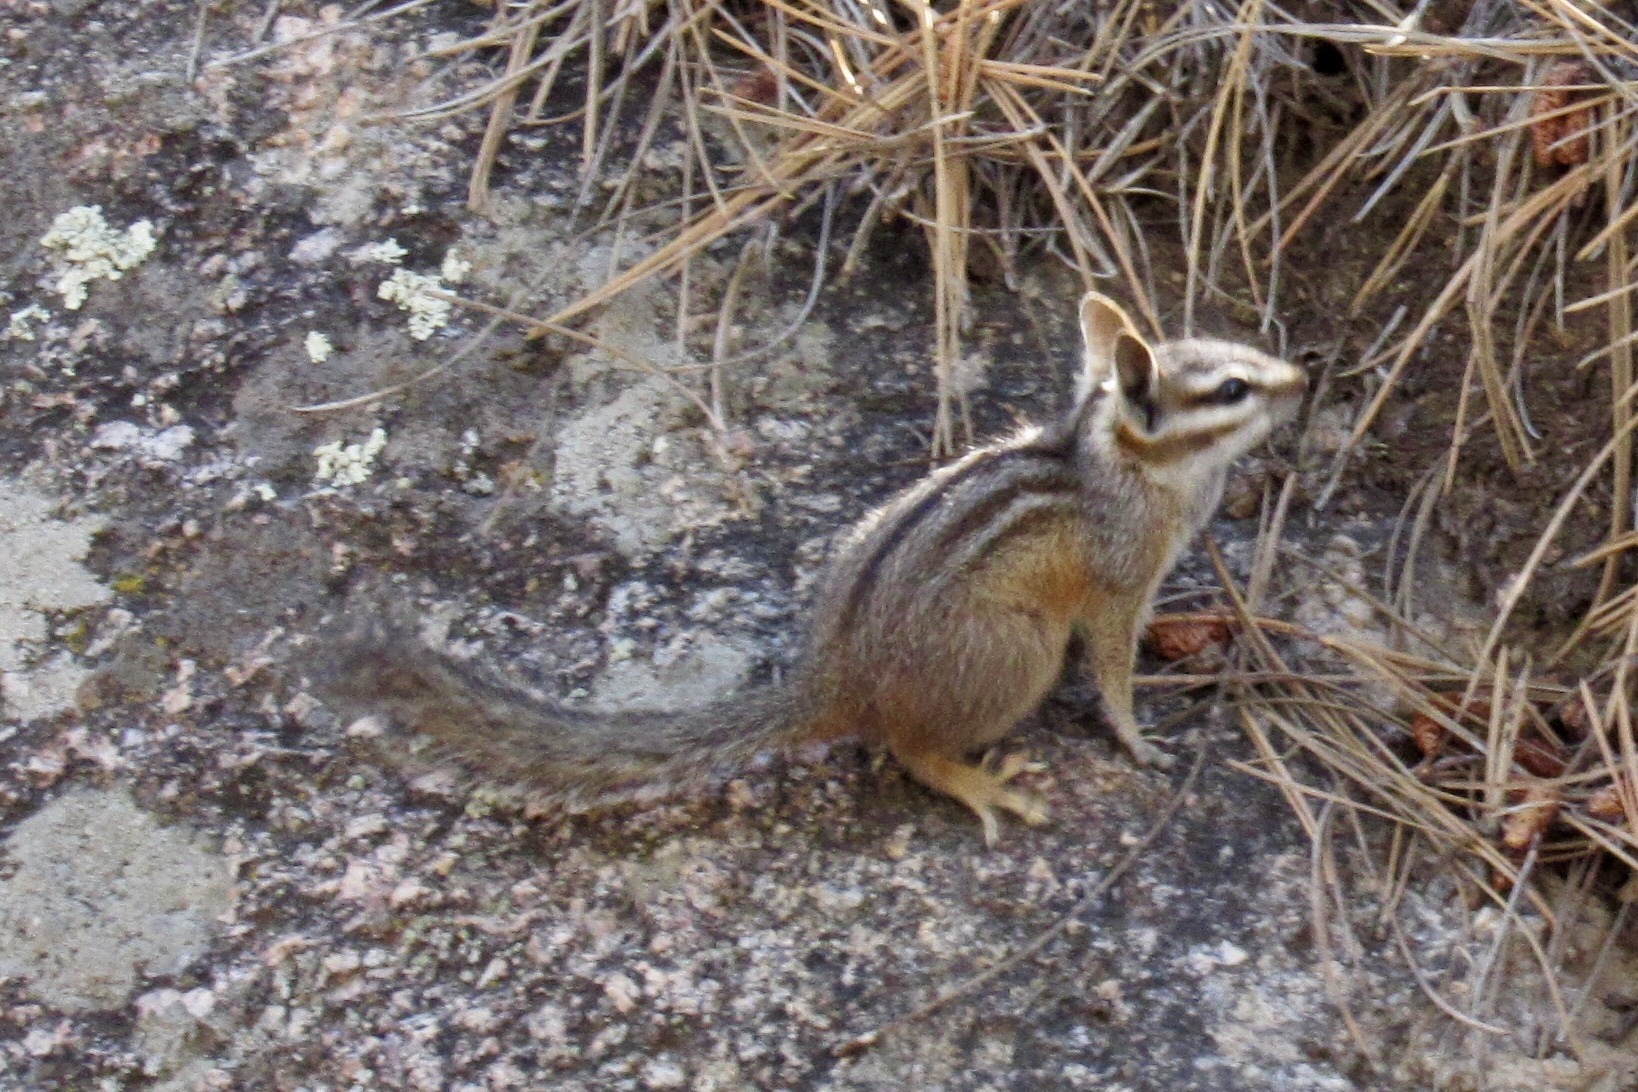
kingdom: Animalia
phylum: Chordata
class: Mammalia
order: Rodentia
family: Sciuridae
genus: Tamias
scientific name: Tamias dorsalis
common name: Cliff chipmunk
